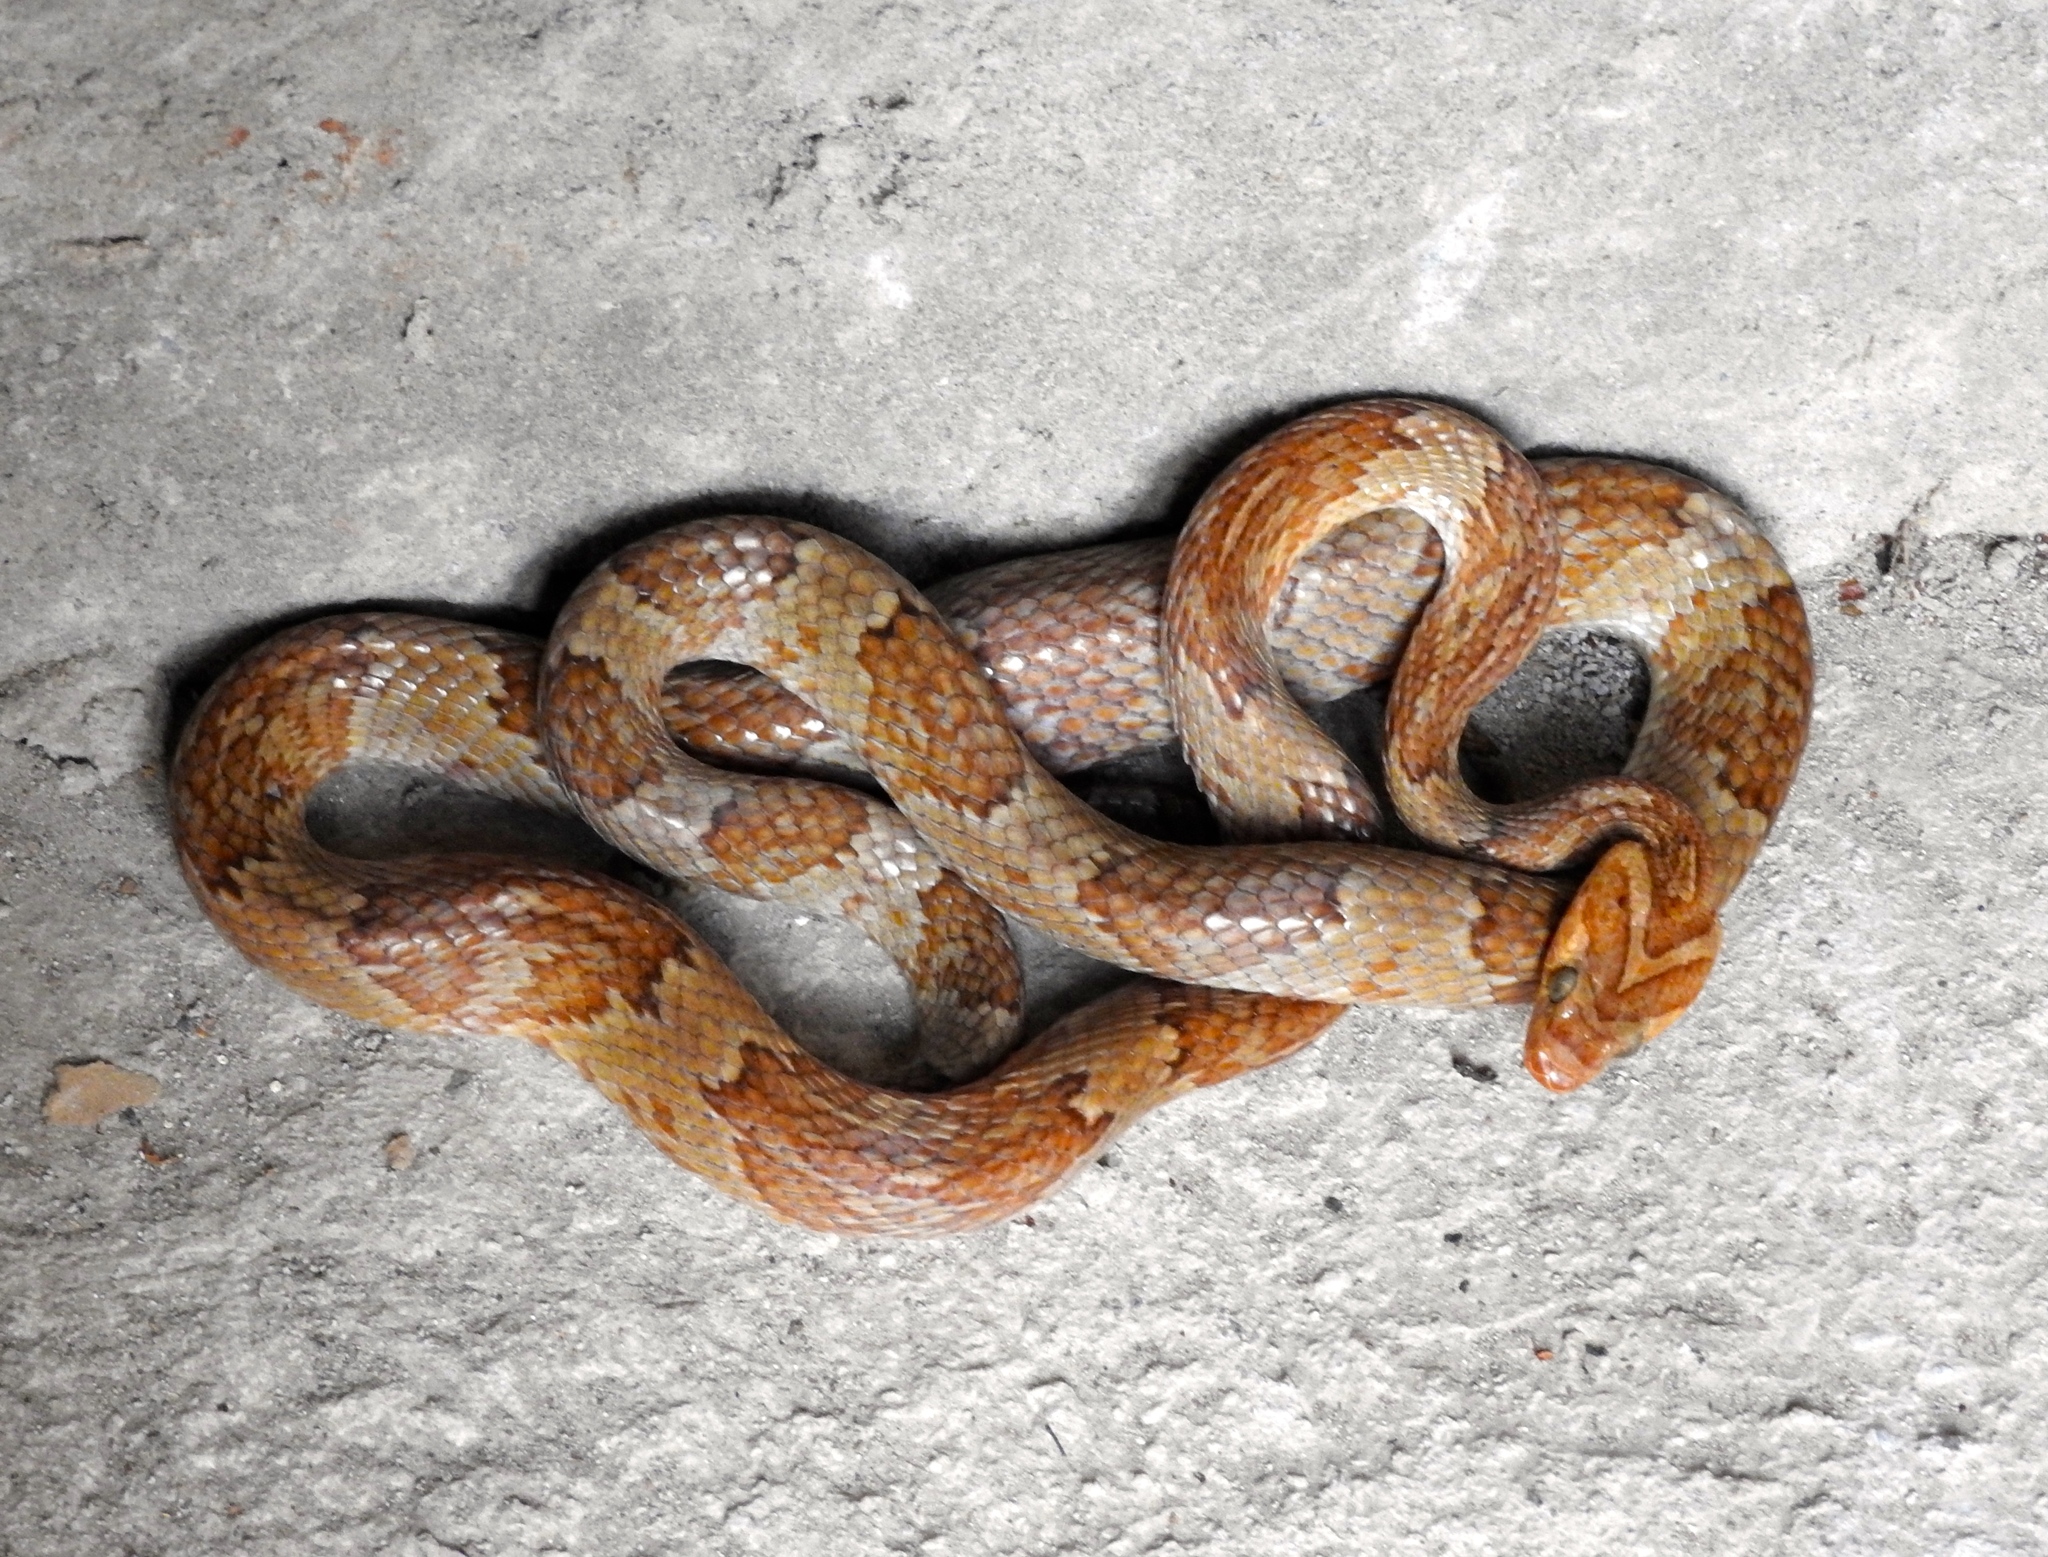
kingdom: Animalia
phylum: Chordata
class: Squamata
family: Colubridae
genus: Trimorphodon
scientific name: Trimorphodon paucimaculatus
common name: Sinaloan lyresnake
